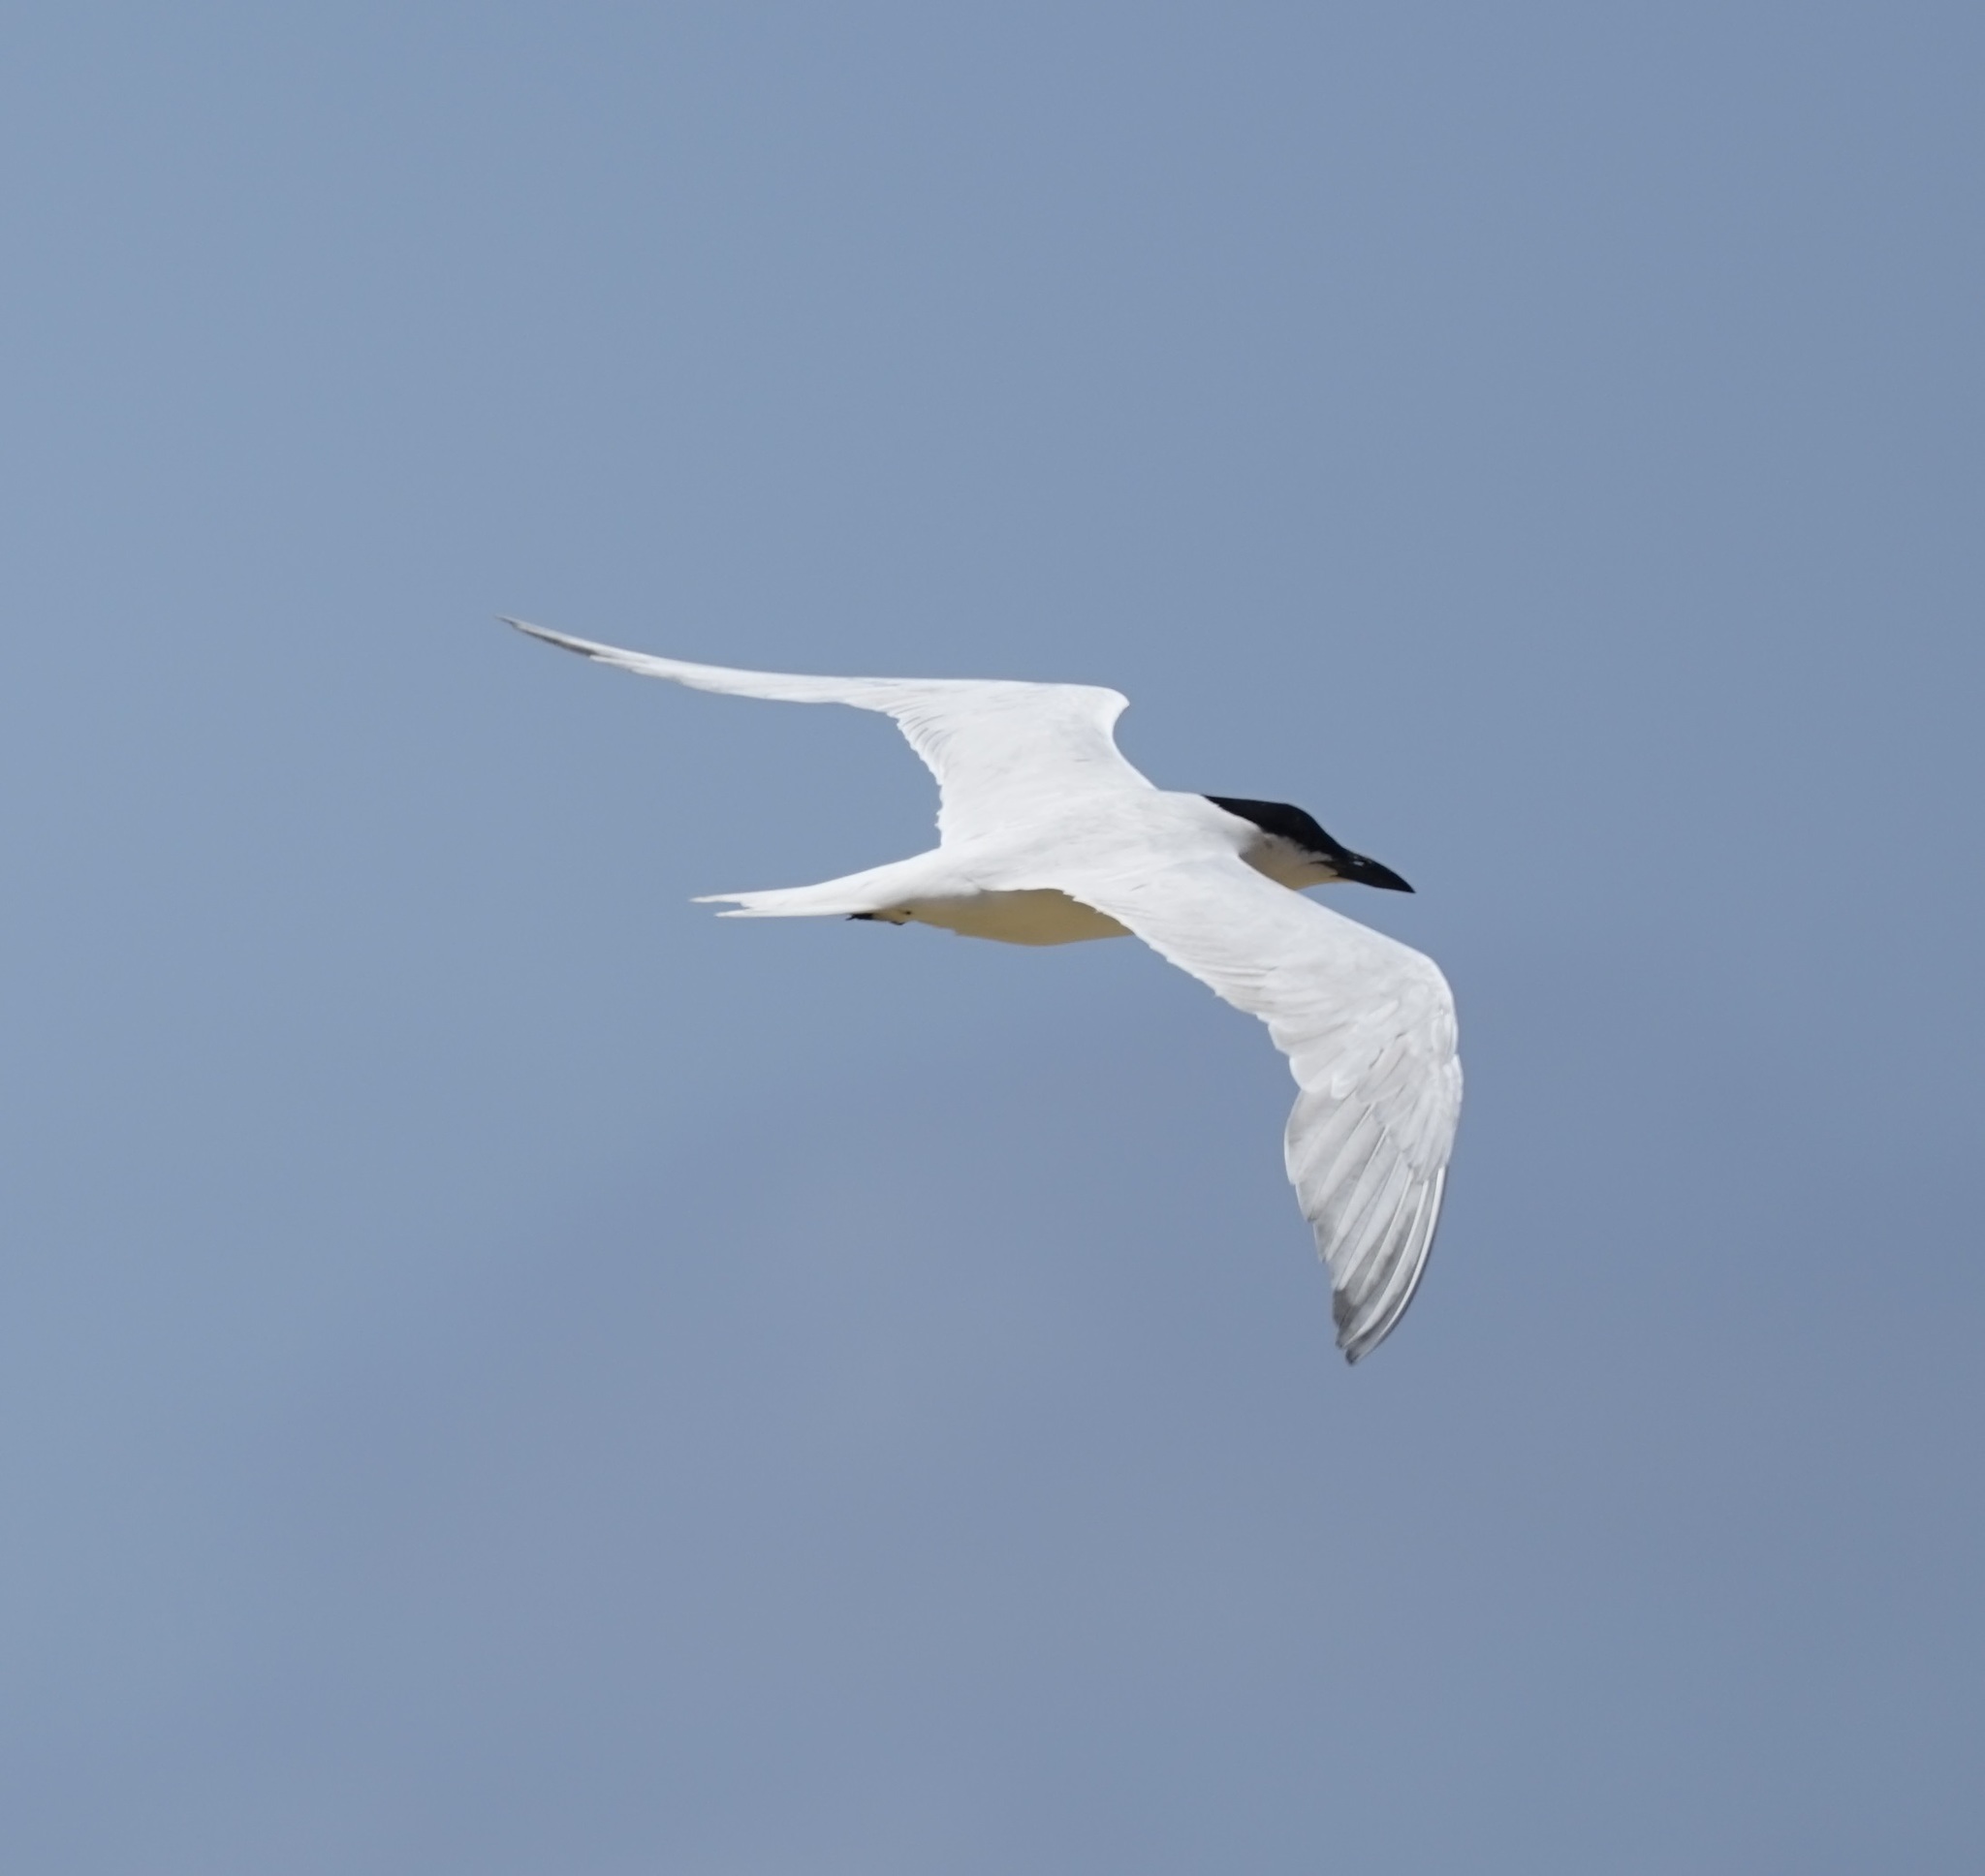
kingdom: Animalia
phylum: Chordata
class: Aves
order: Charadriiformes
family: Laridae
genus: Gelochelidon
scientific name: Gelochelidon macrotarsa
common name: Australian tern
